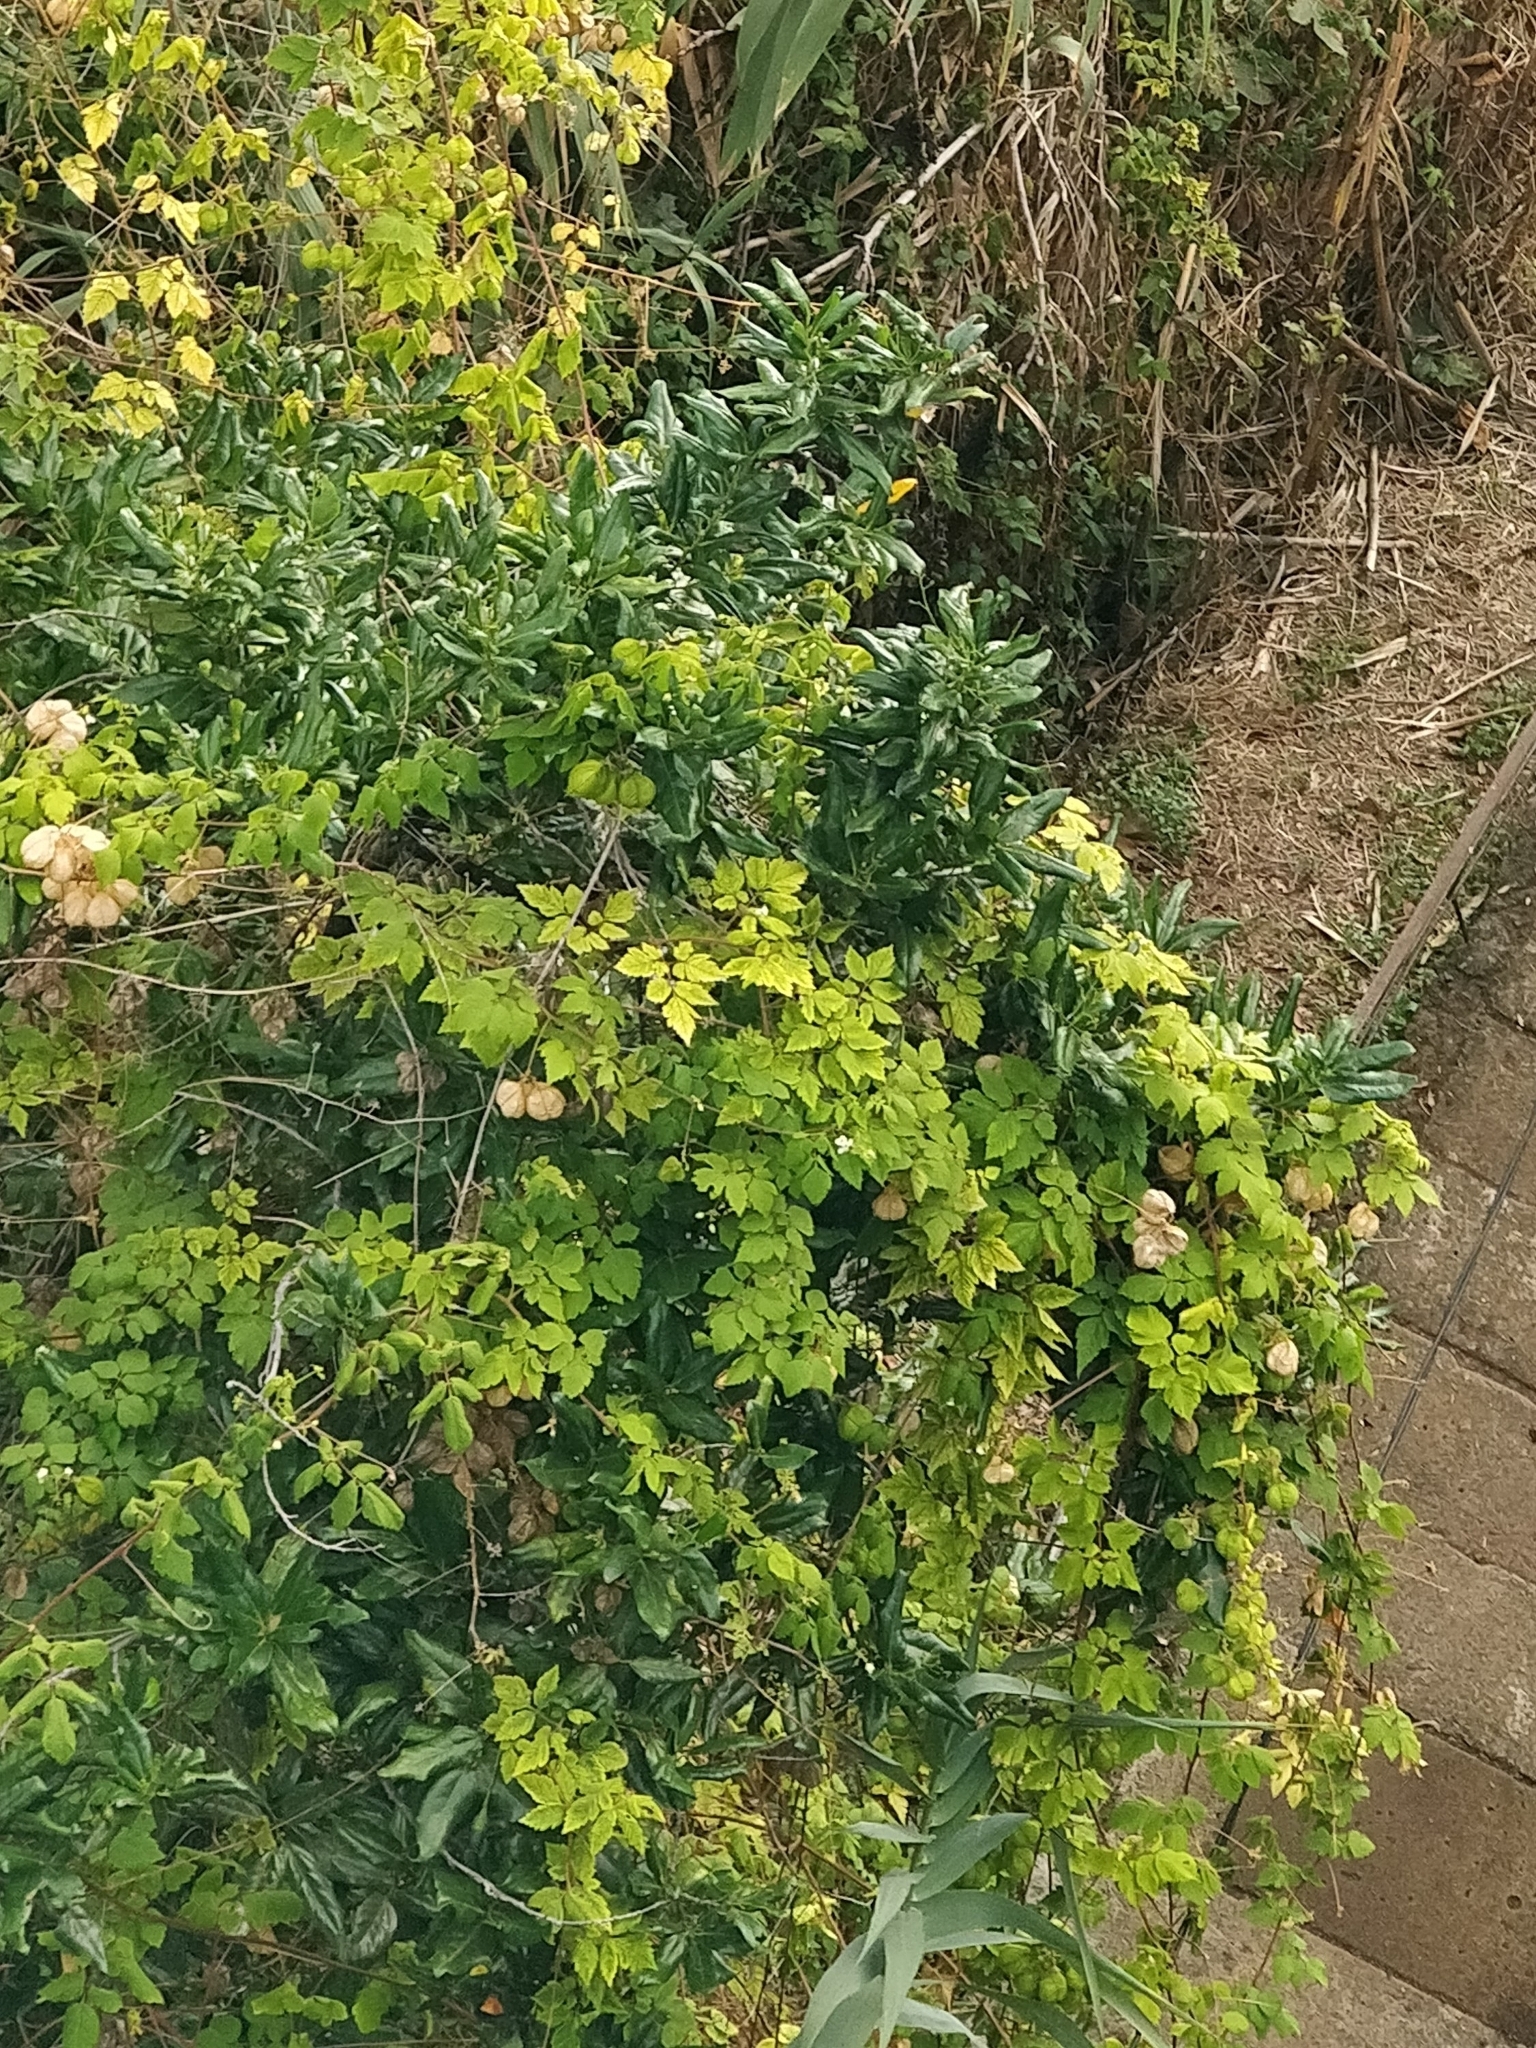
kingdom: Plantae
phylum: Tracheophyta
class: Magnoliopsida
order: Sapindales
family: Sapindaceae
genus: Cardiospermum
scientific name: Cardiospermum grandiflorum
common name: Balloon vine
